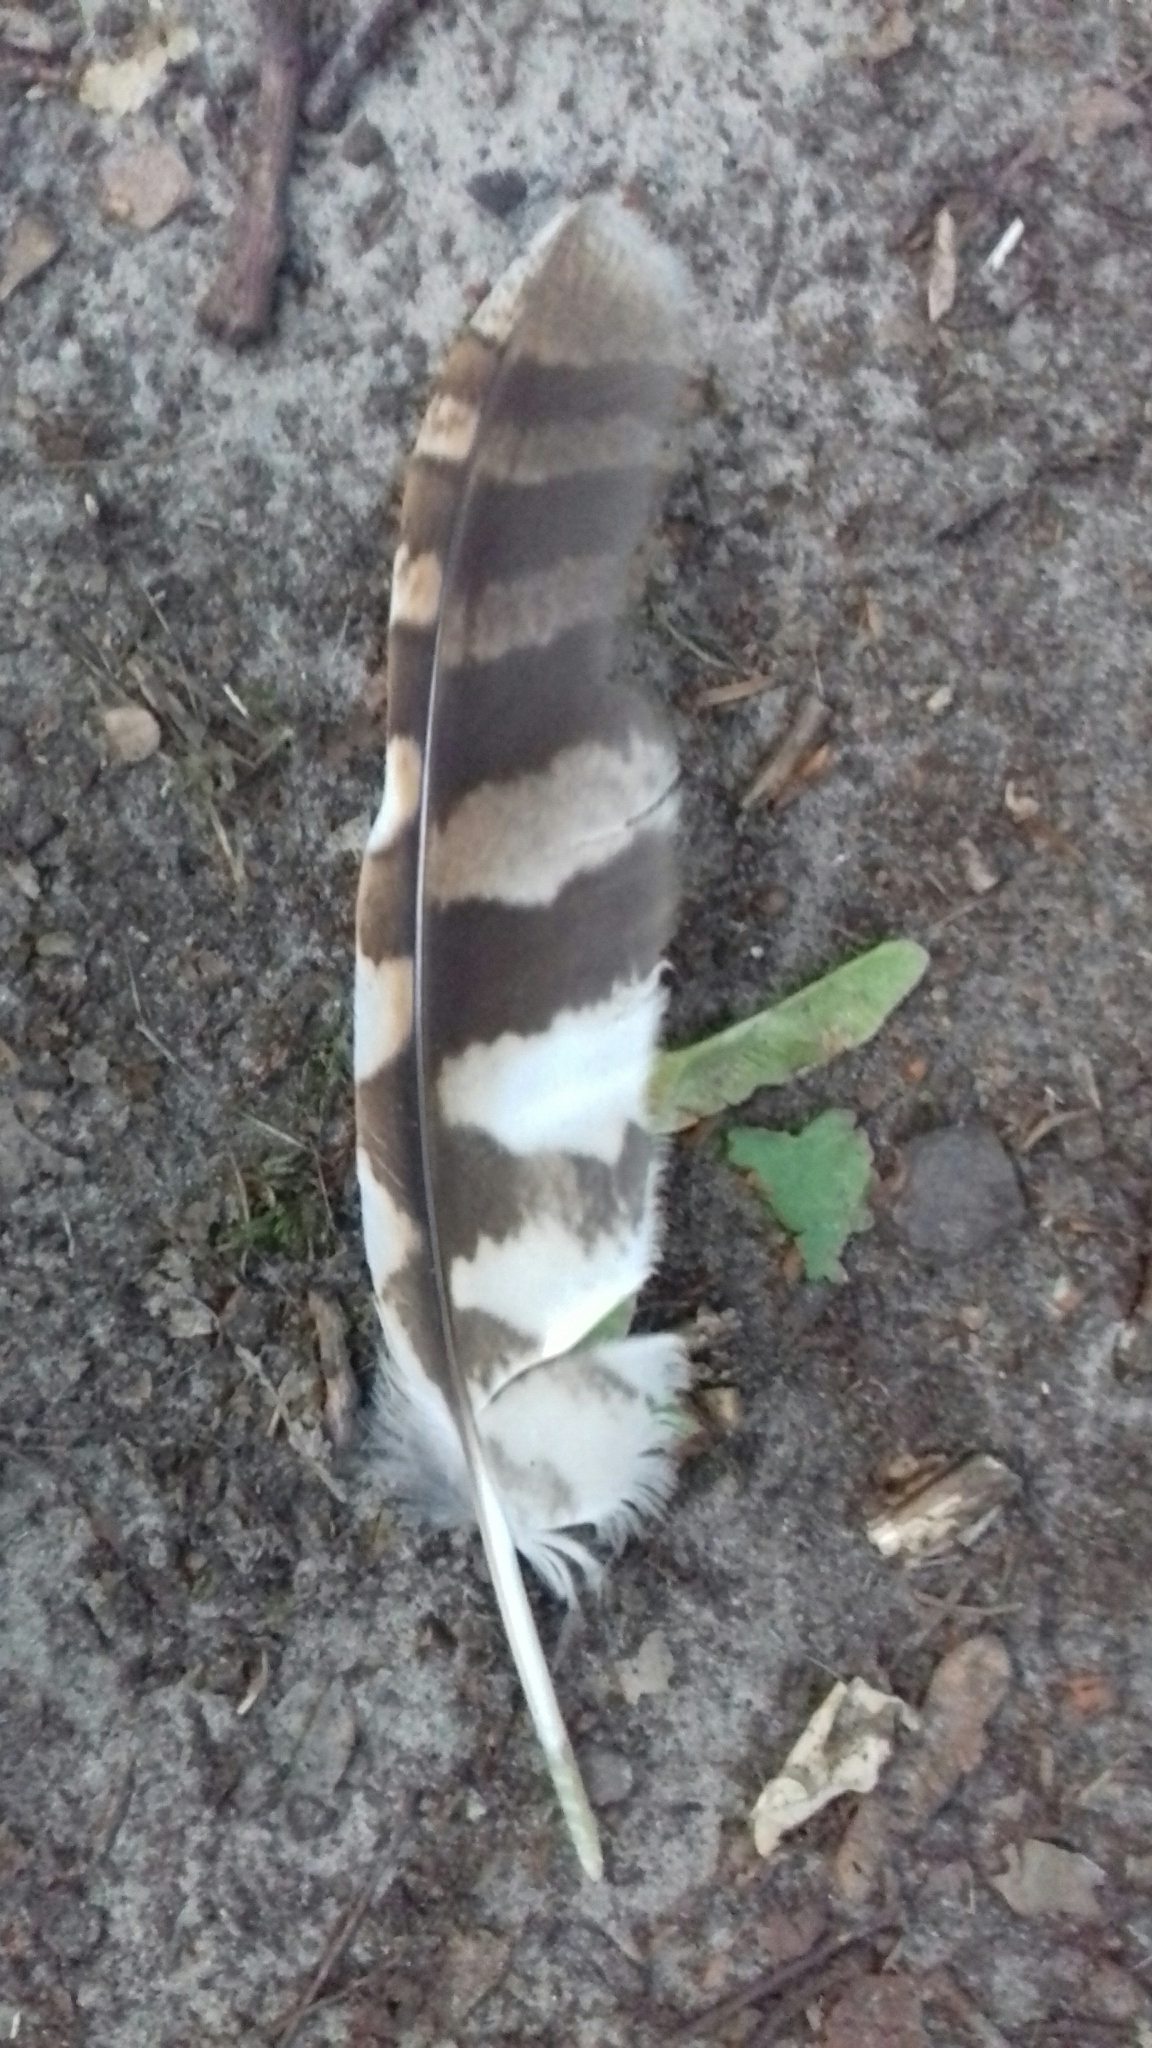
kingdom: Animalia
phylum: Chordata
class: Aves
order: Strigiformes
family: Strigidae
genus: Strix
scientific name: Strix aluco
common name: Tawny owl
